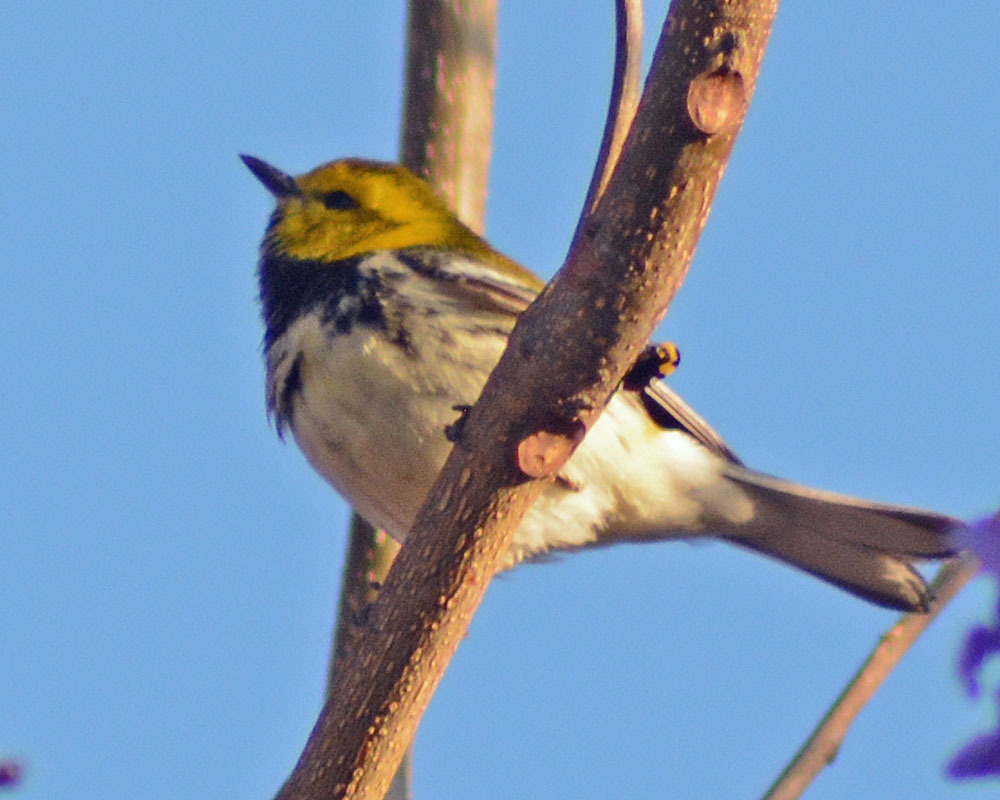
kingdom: Animalia
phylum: Chordata
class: Aves
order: Passeriformes
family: Parulidae
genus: Setophaga
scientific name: Setophaga virens
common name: Black-throated green warbler
